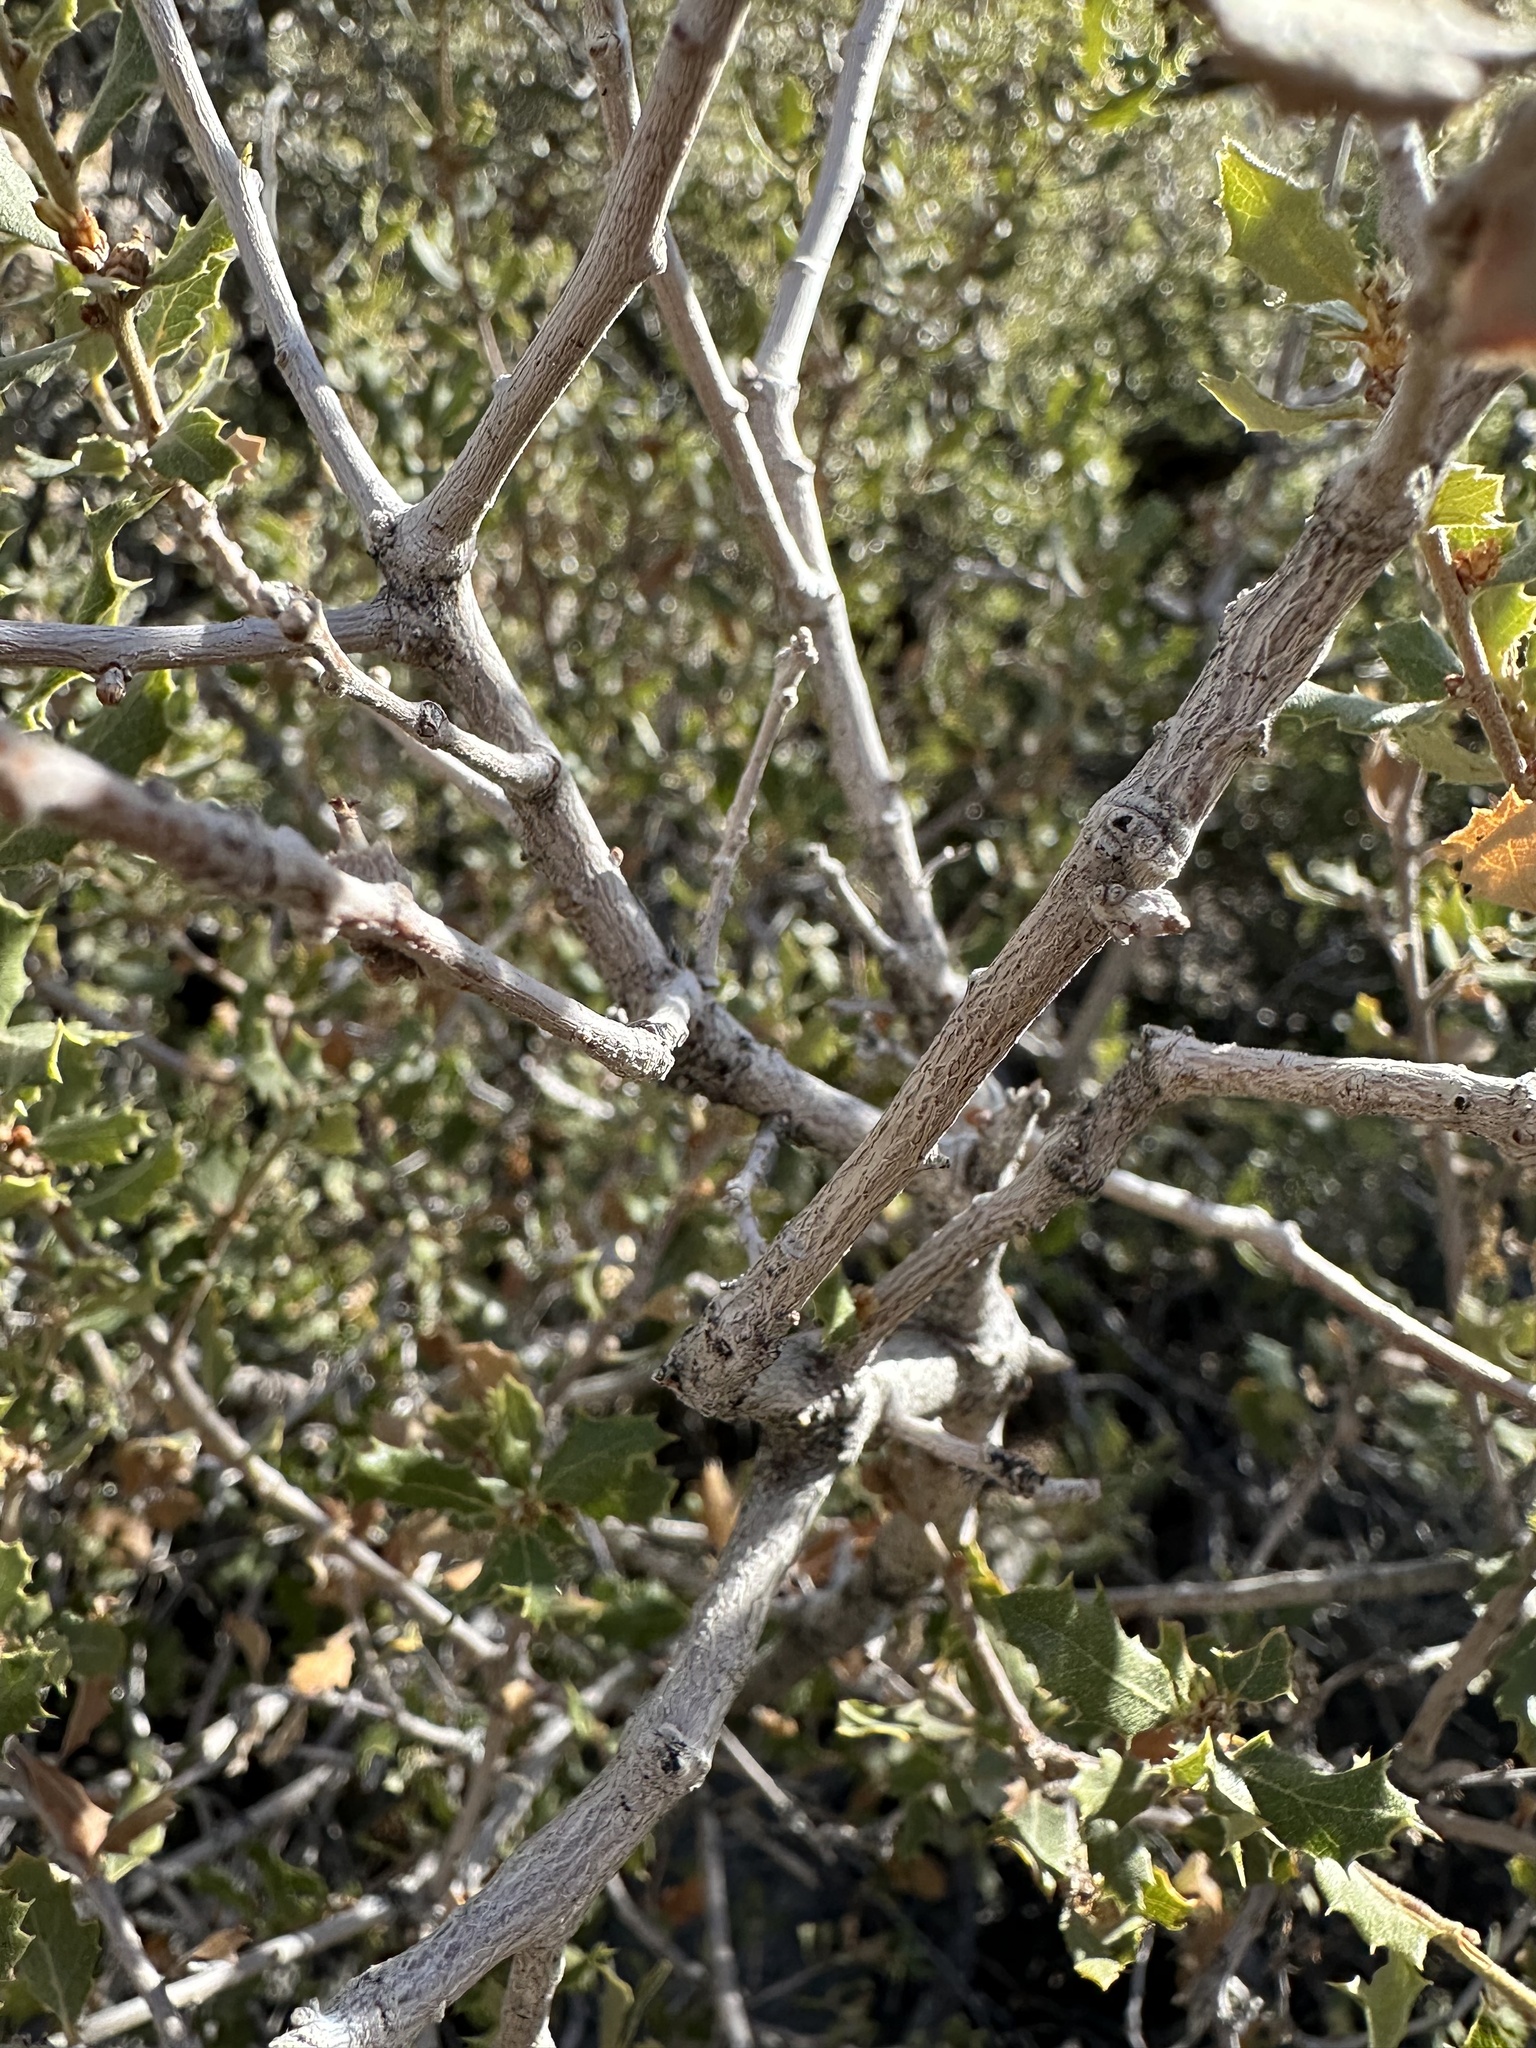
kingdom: Plantae
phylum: Tracheophyta
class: Magnoliopsida
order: Fagales
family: Fagaceae
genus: Quercus
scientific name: Quercus cornelius-mulleri
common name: Muller oak
